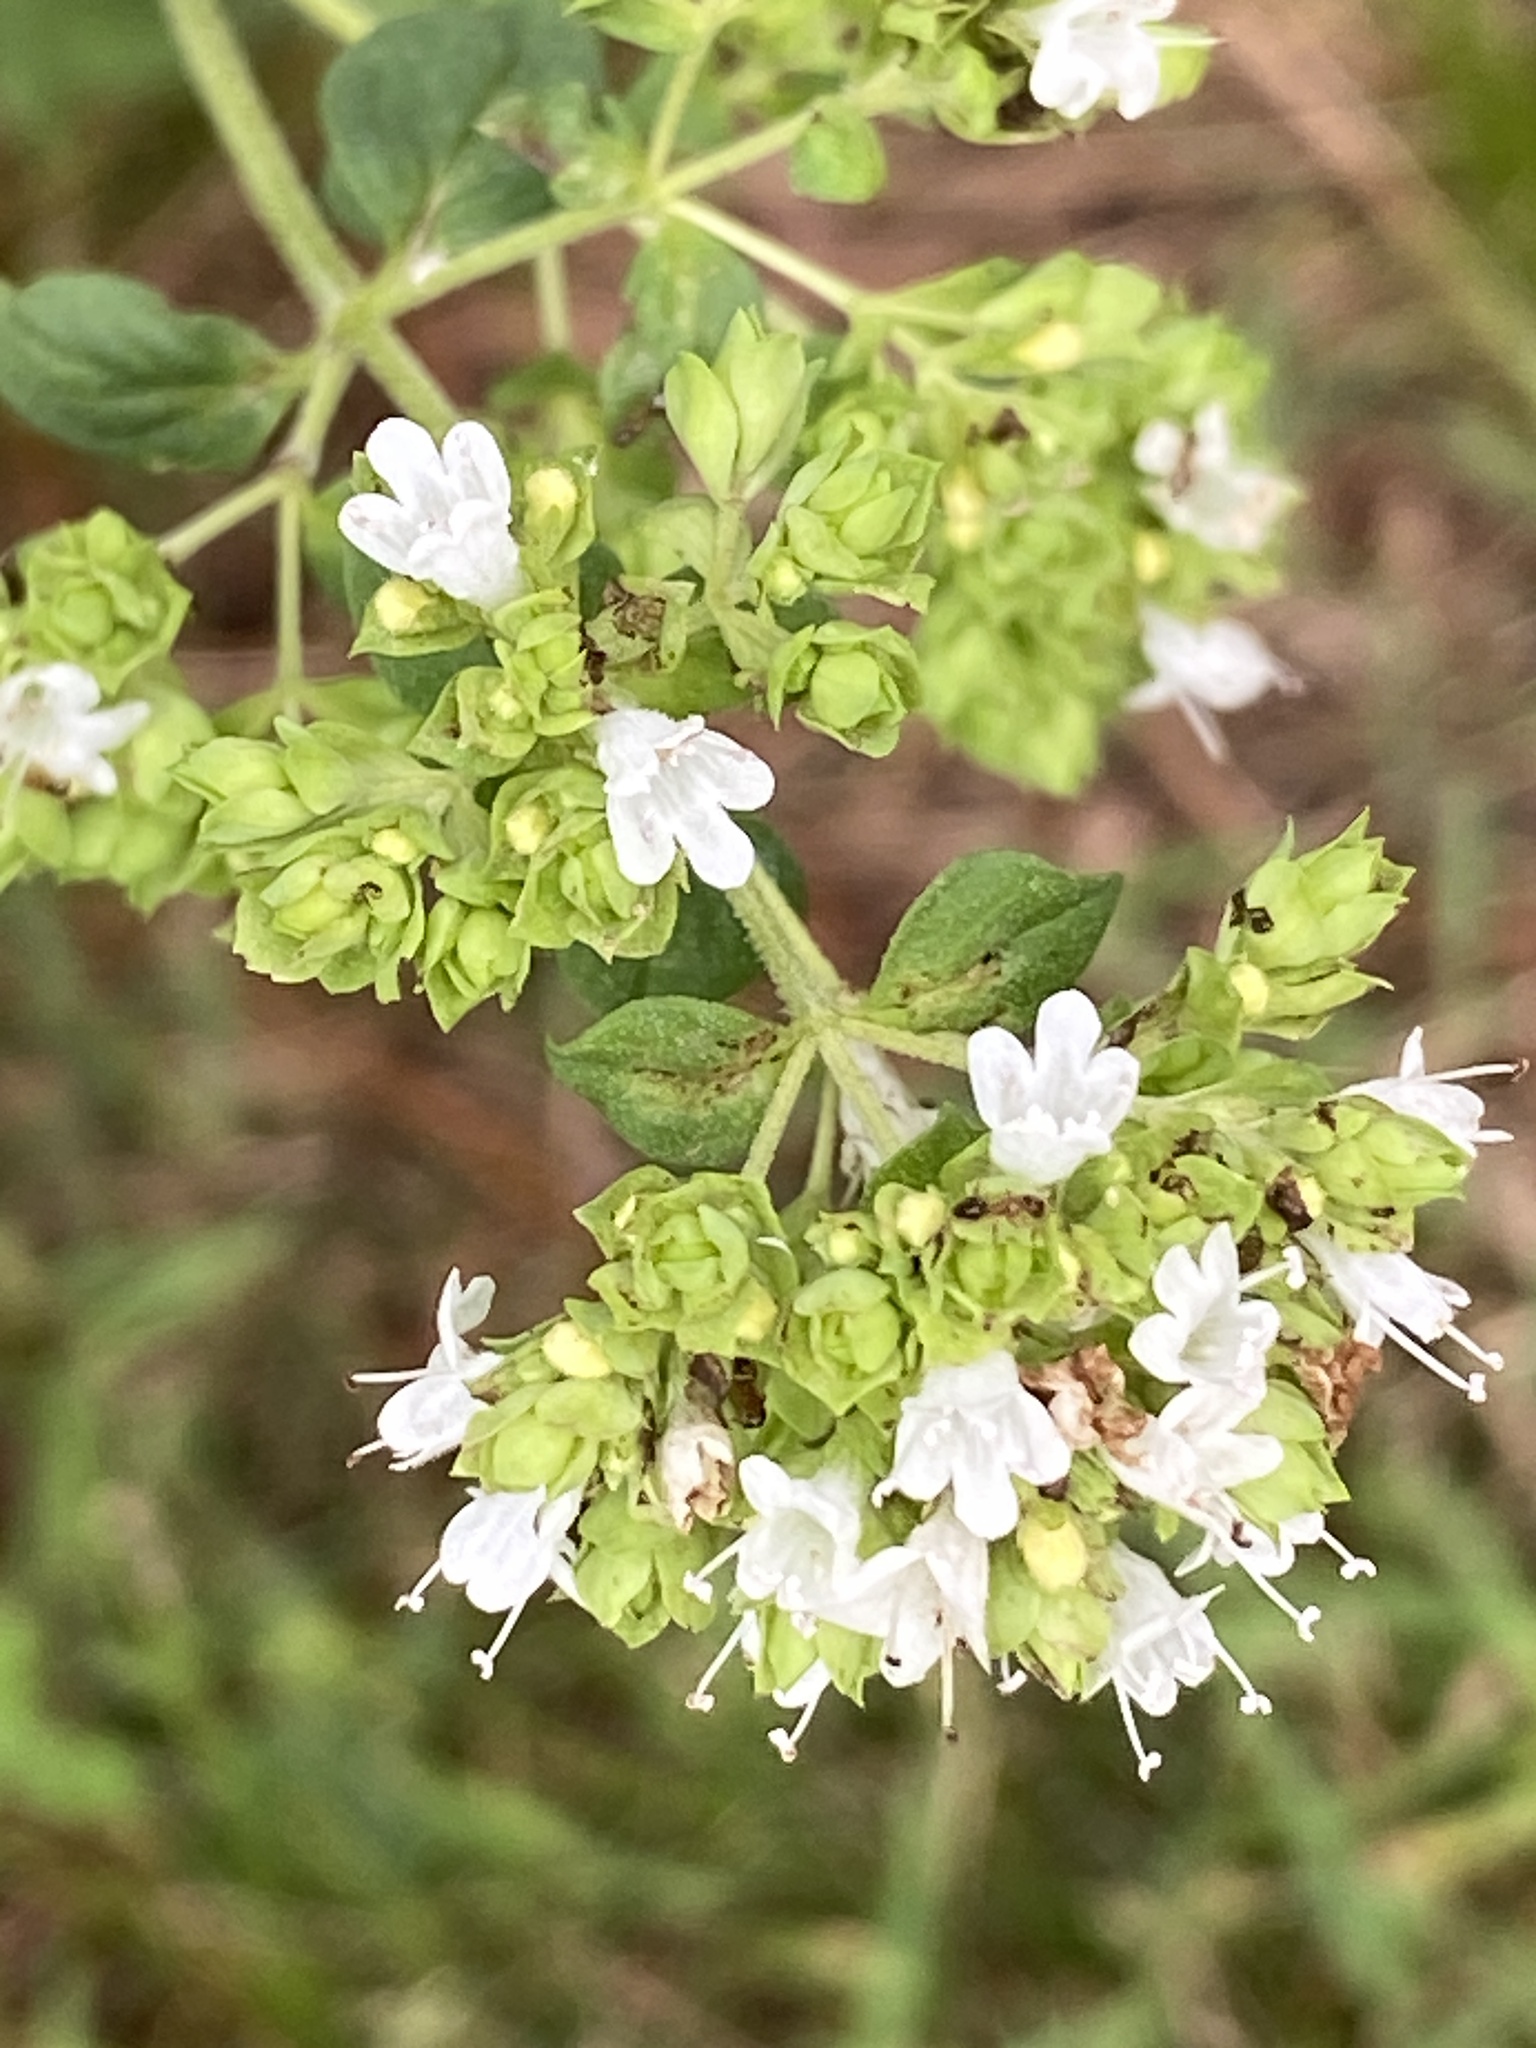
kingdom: Plantae
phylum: Tracheophyta
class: Magnoliopsida
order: Lamiales
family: Lamiaceae
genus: Origanum
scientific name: Origanum vulgare
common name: Wild marjoram
